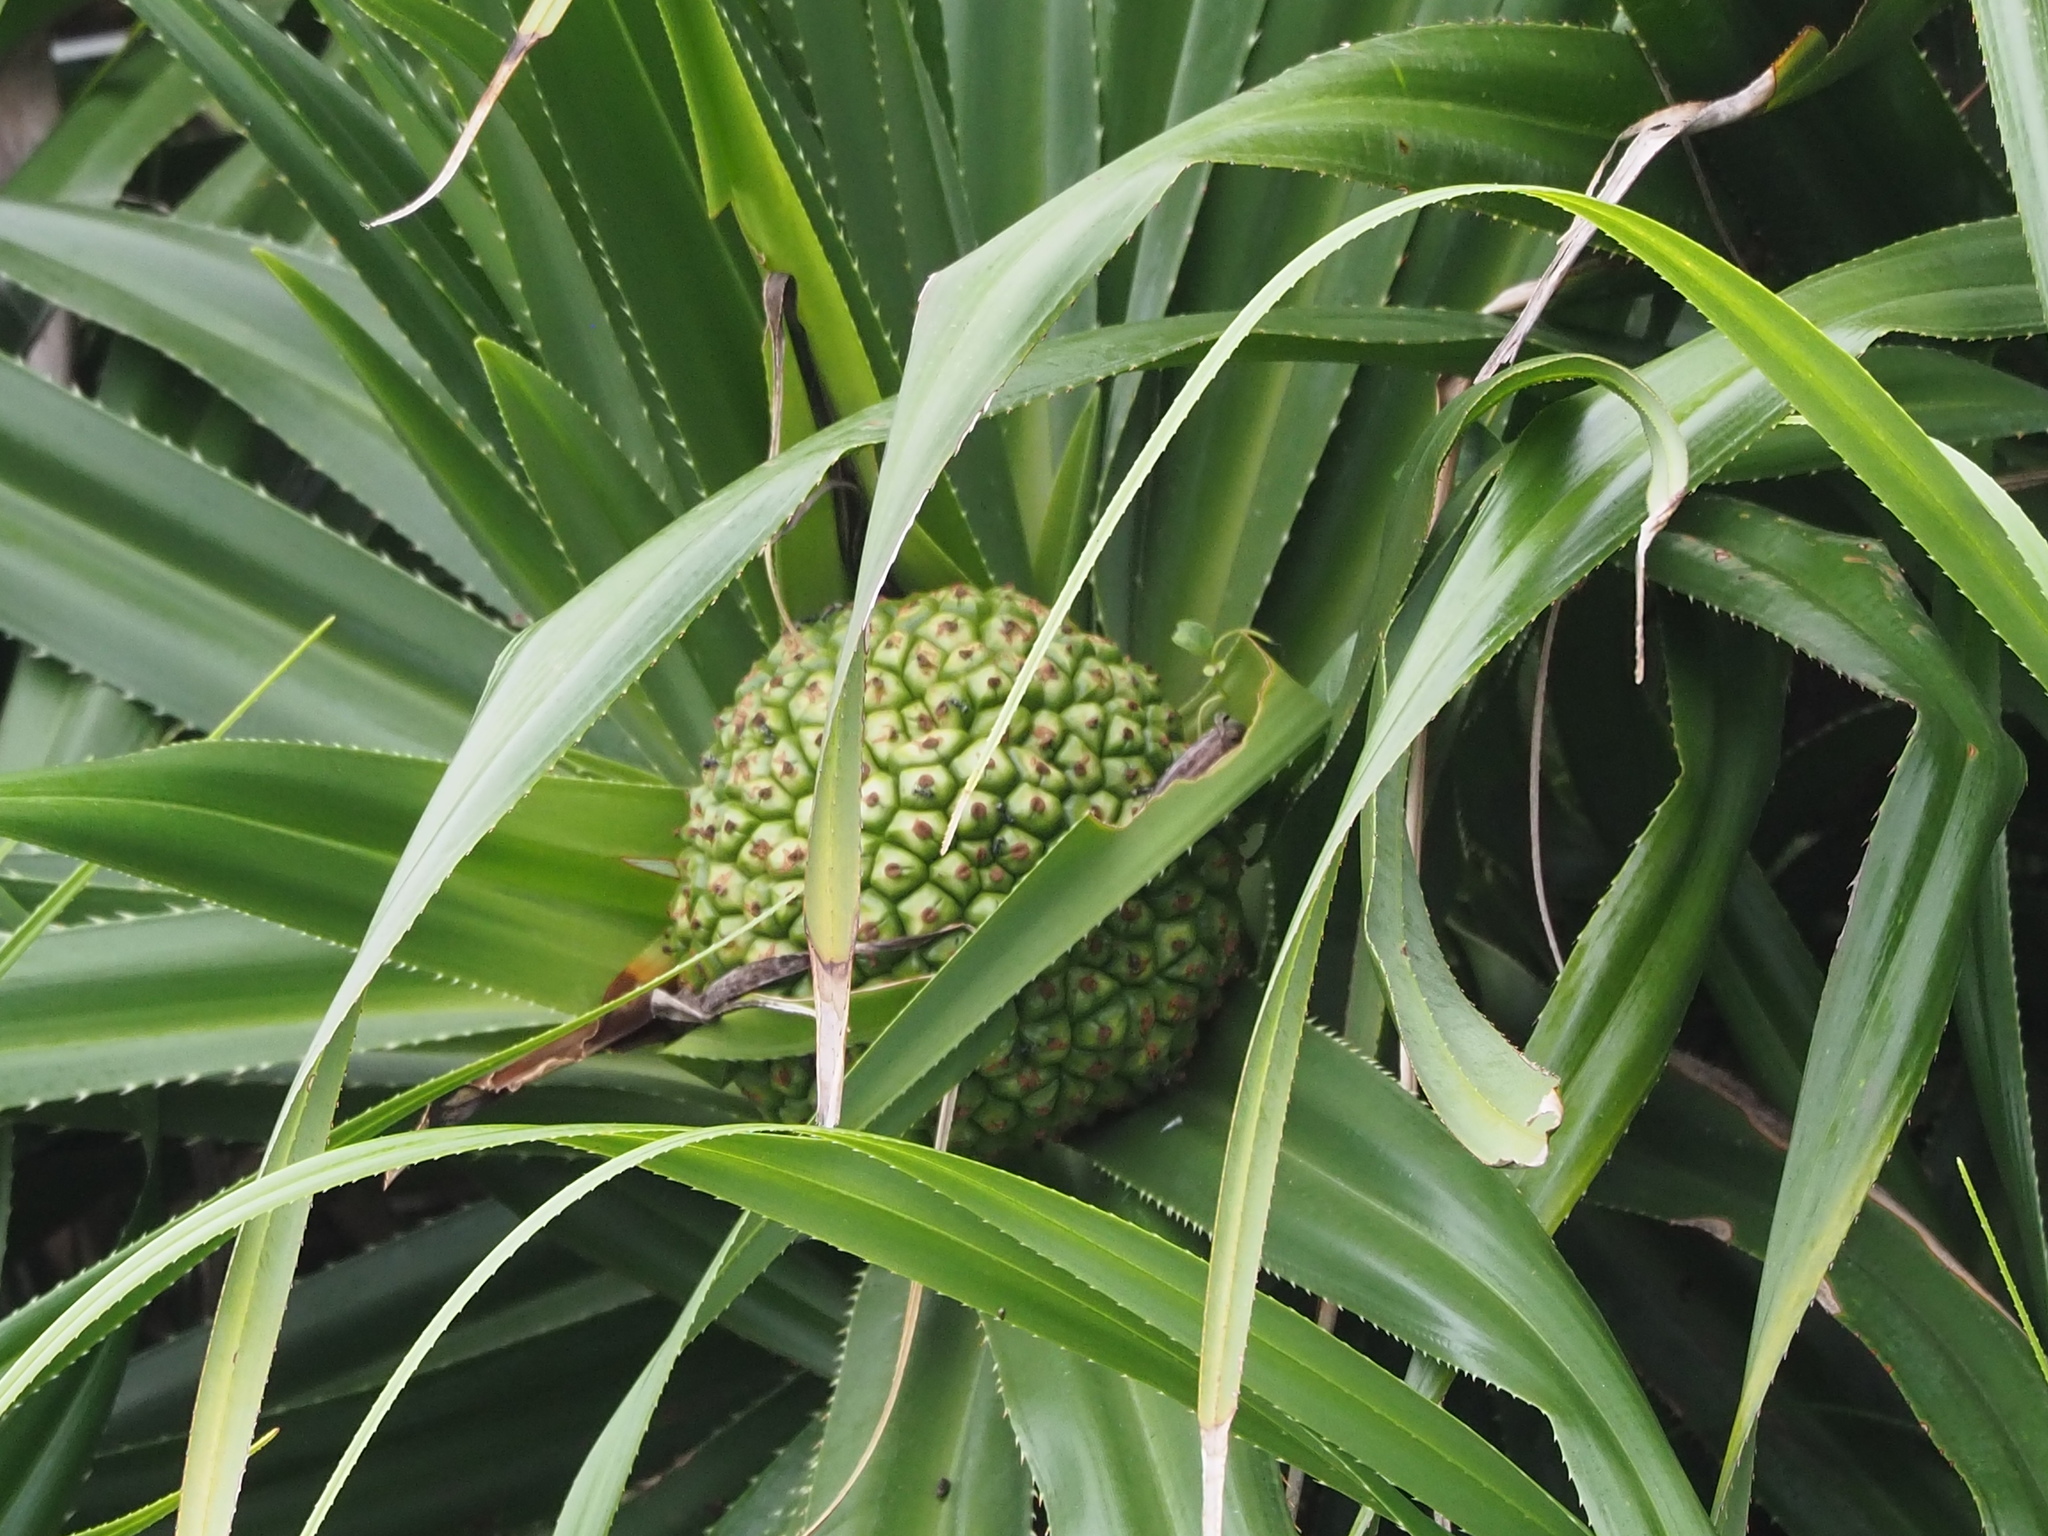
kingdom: Plantae
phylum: Tracheophyta
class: Liliopsida
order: Pandanales
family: Pandanaceae
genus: Pandanus
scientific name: Pandanus odorifer
